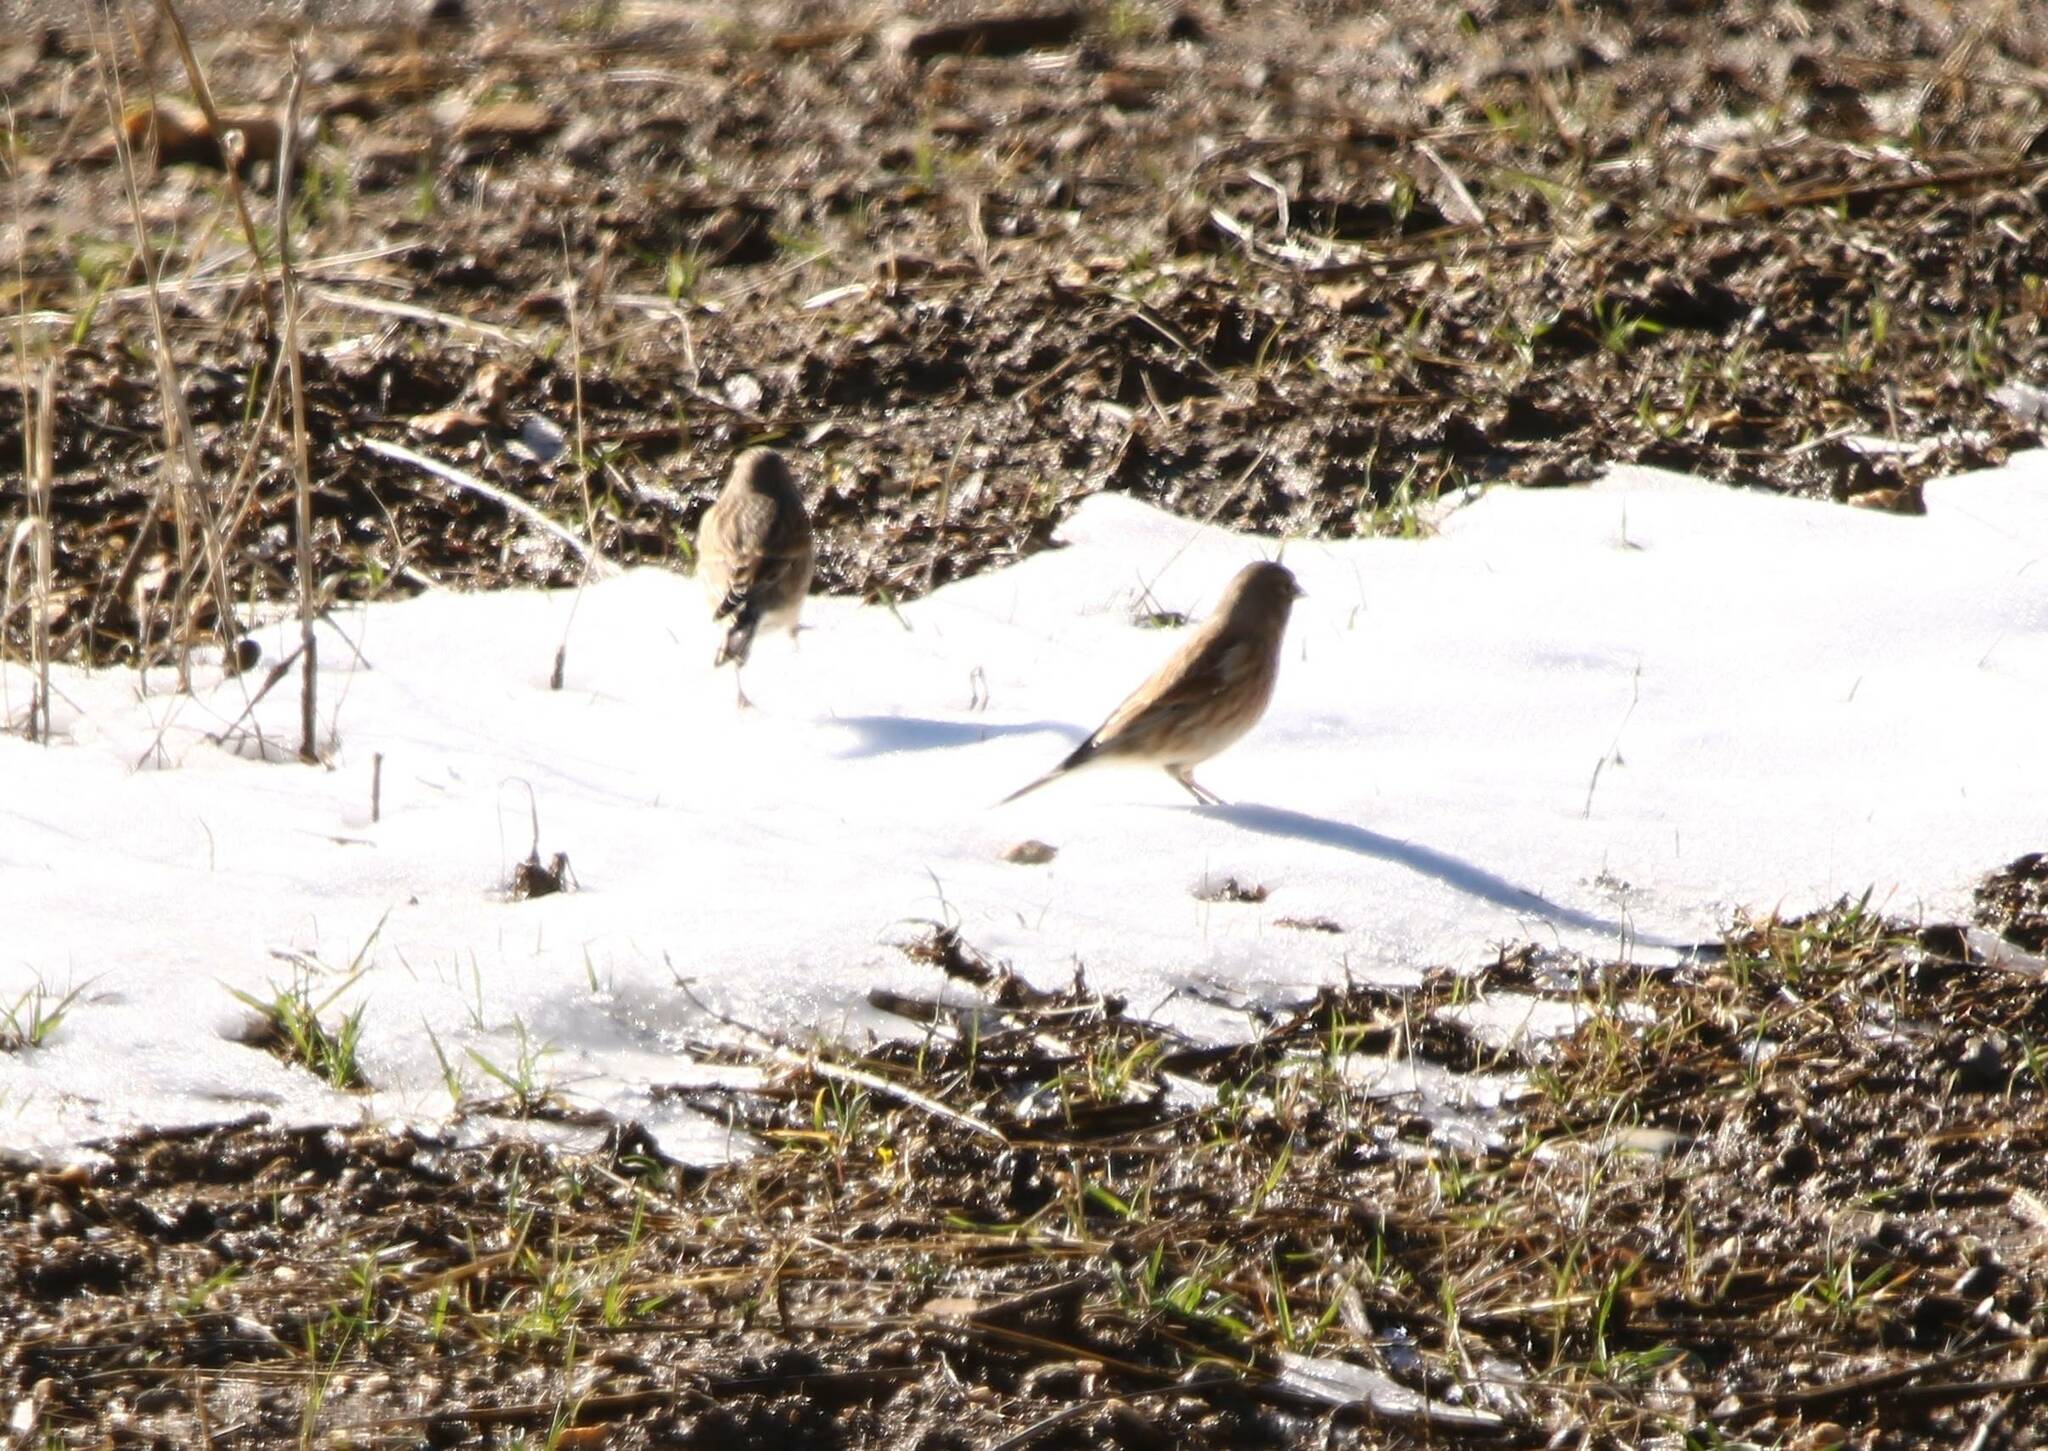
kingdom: Animalia
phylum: Chordata
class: Aves
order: Passeriformes
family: Fringillidae
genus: Linaria
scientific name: Linaria cannabina
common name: Common linnet
